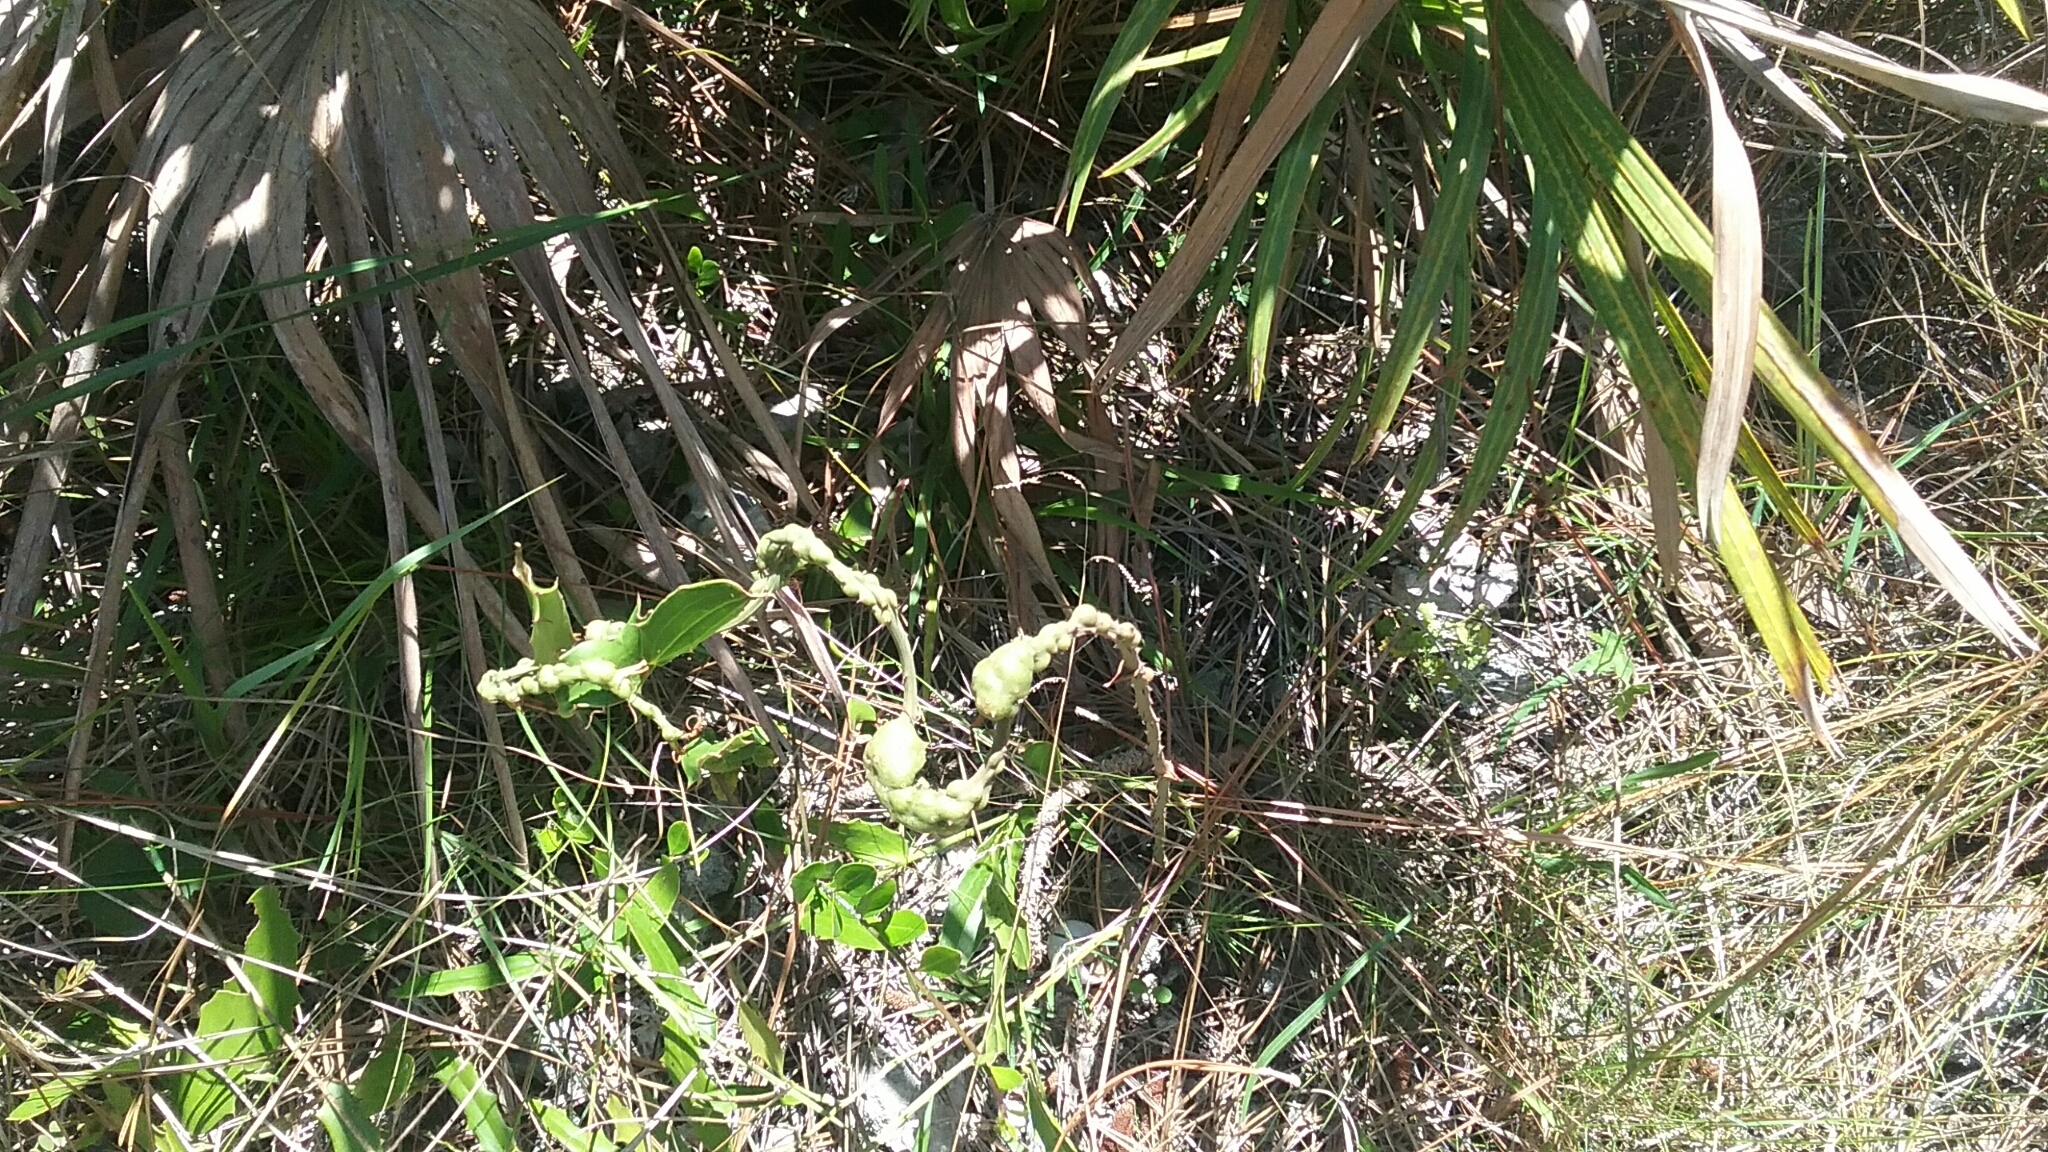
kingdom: Animalia
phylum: Arthropoda
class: Insecta
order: Hymenoptera
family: Eulophidae
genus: Aprostocetus
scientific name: Aprostocetus smilax
